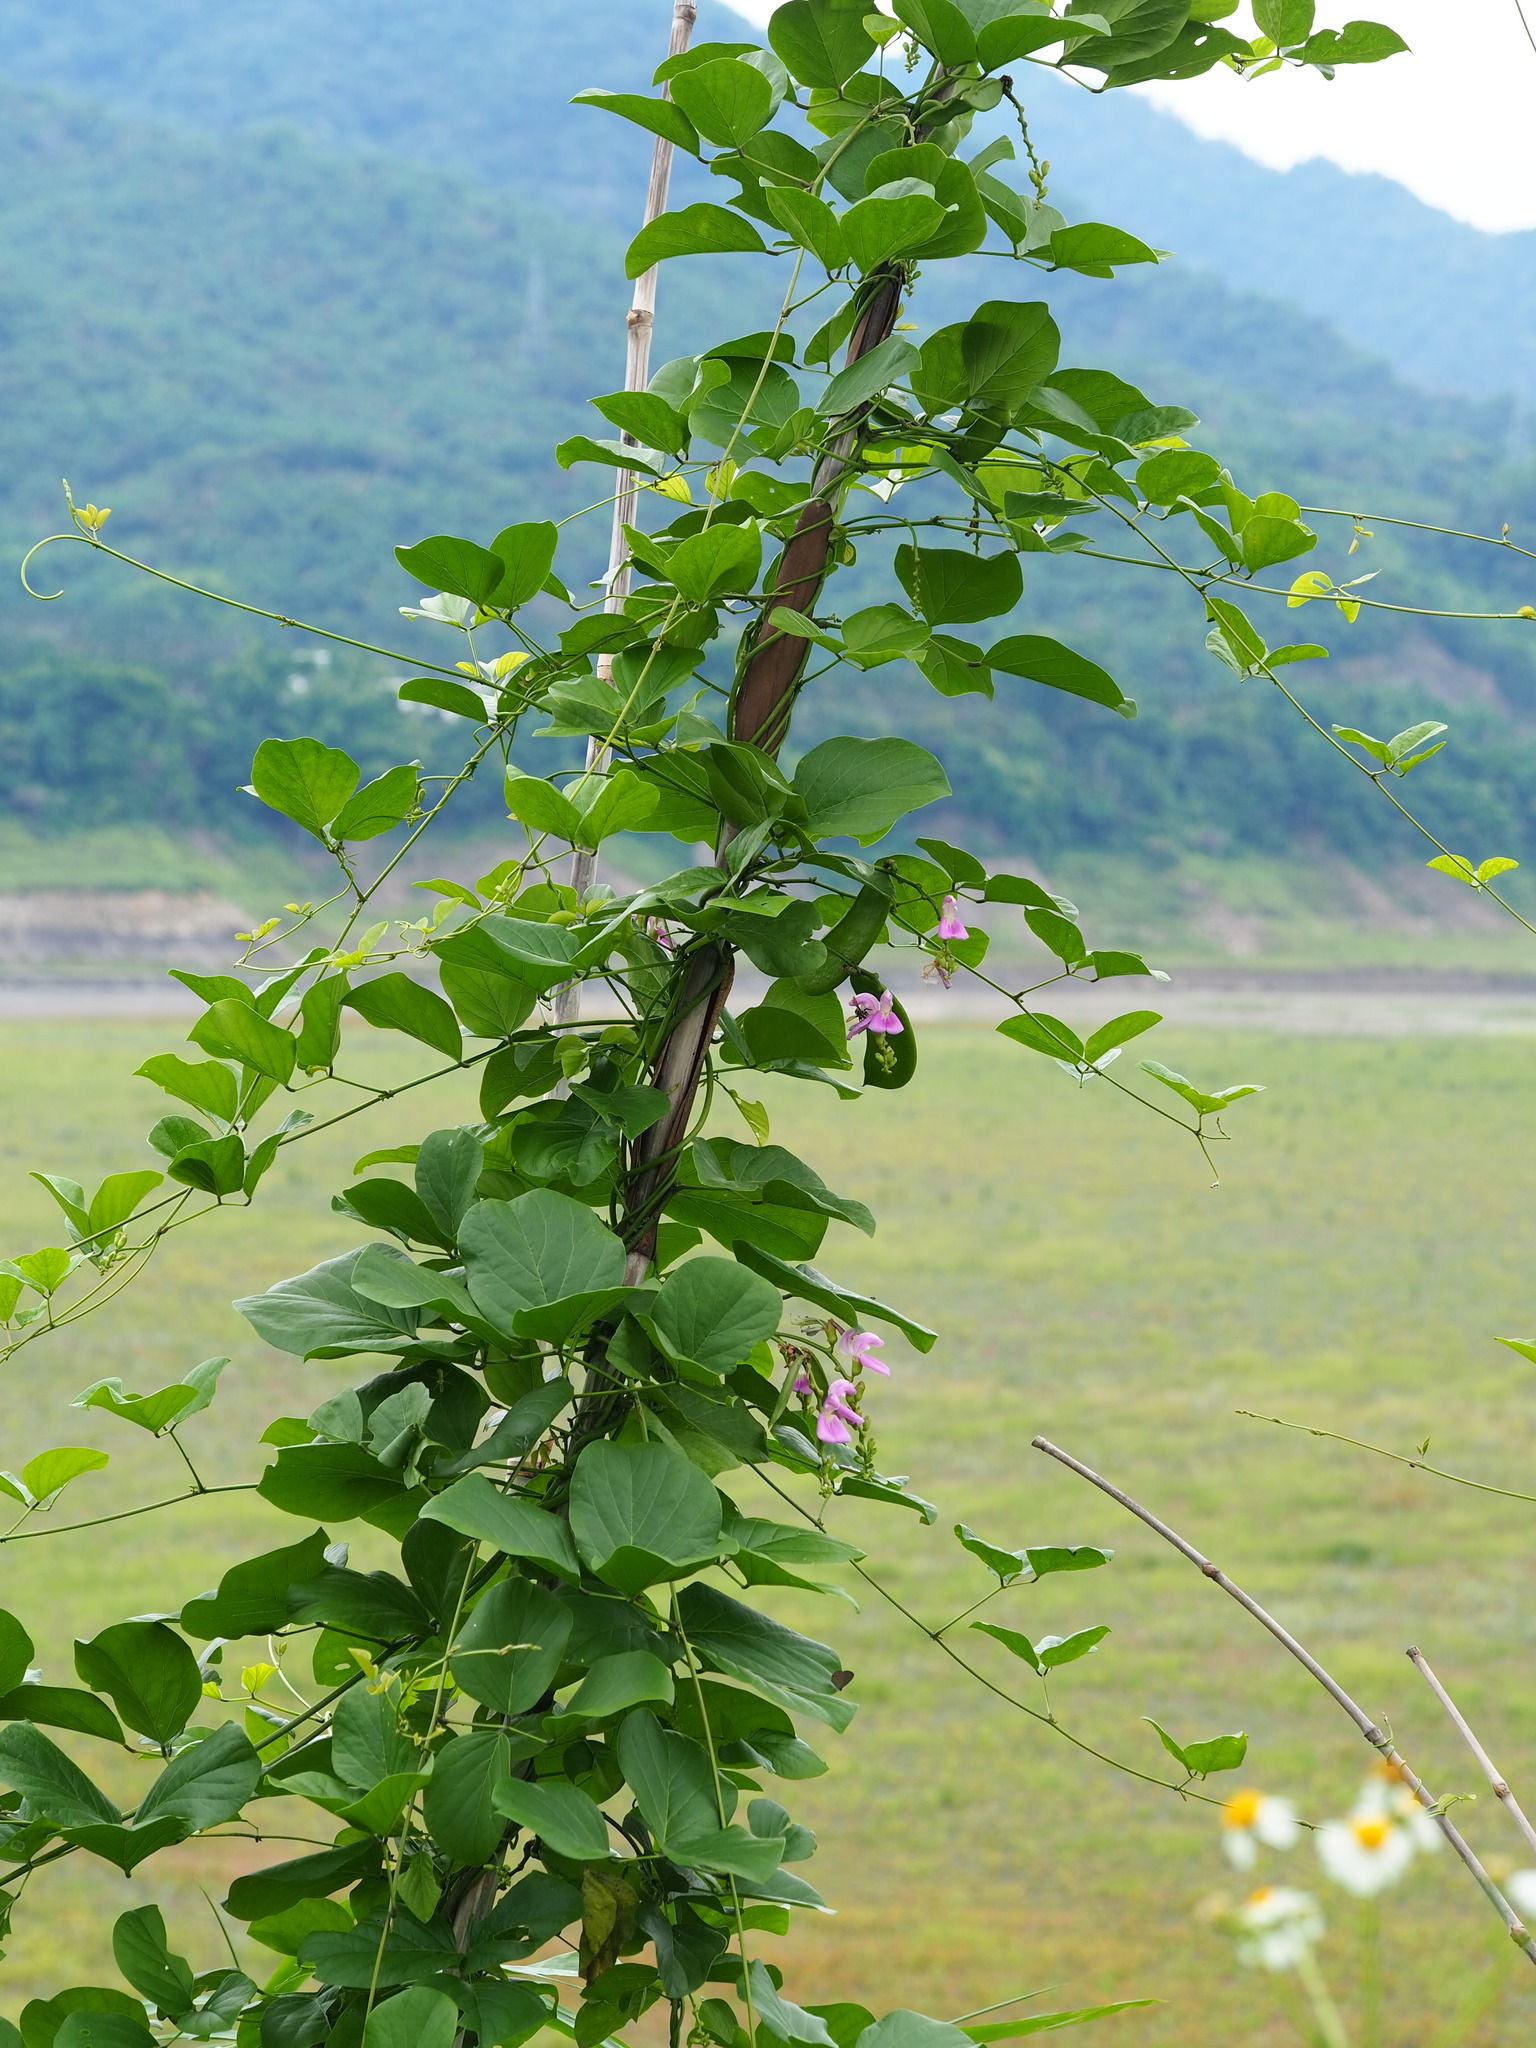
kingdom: Plantae
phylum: Tracheophyta
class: Magnoliopsida
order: Fabales
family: Fabaceae
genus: Canavalia
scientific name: Canavalia lineata
